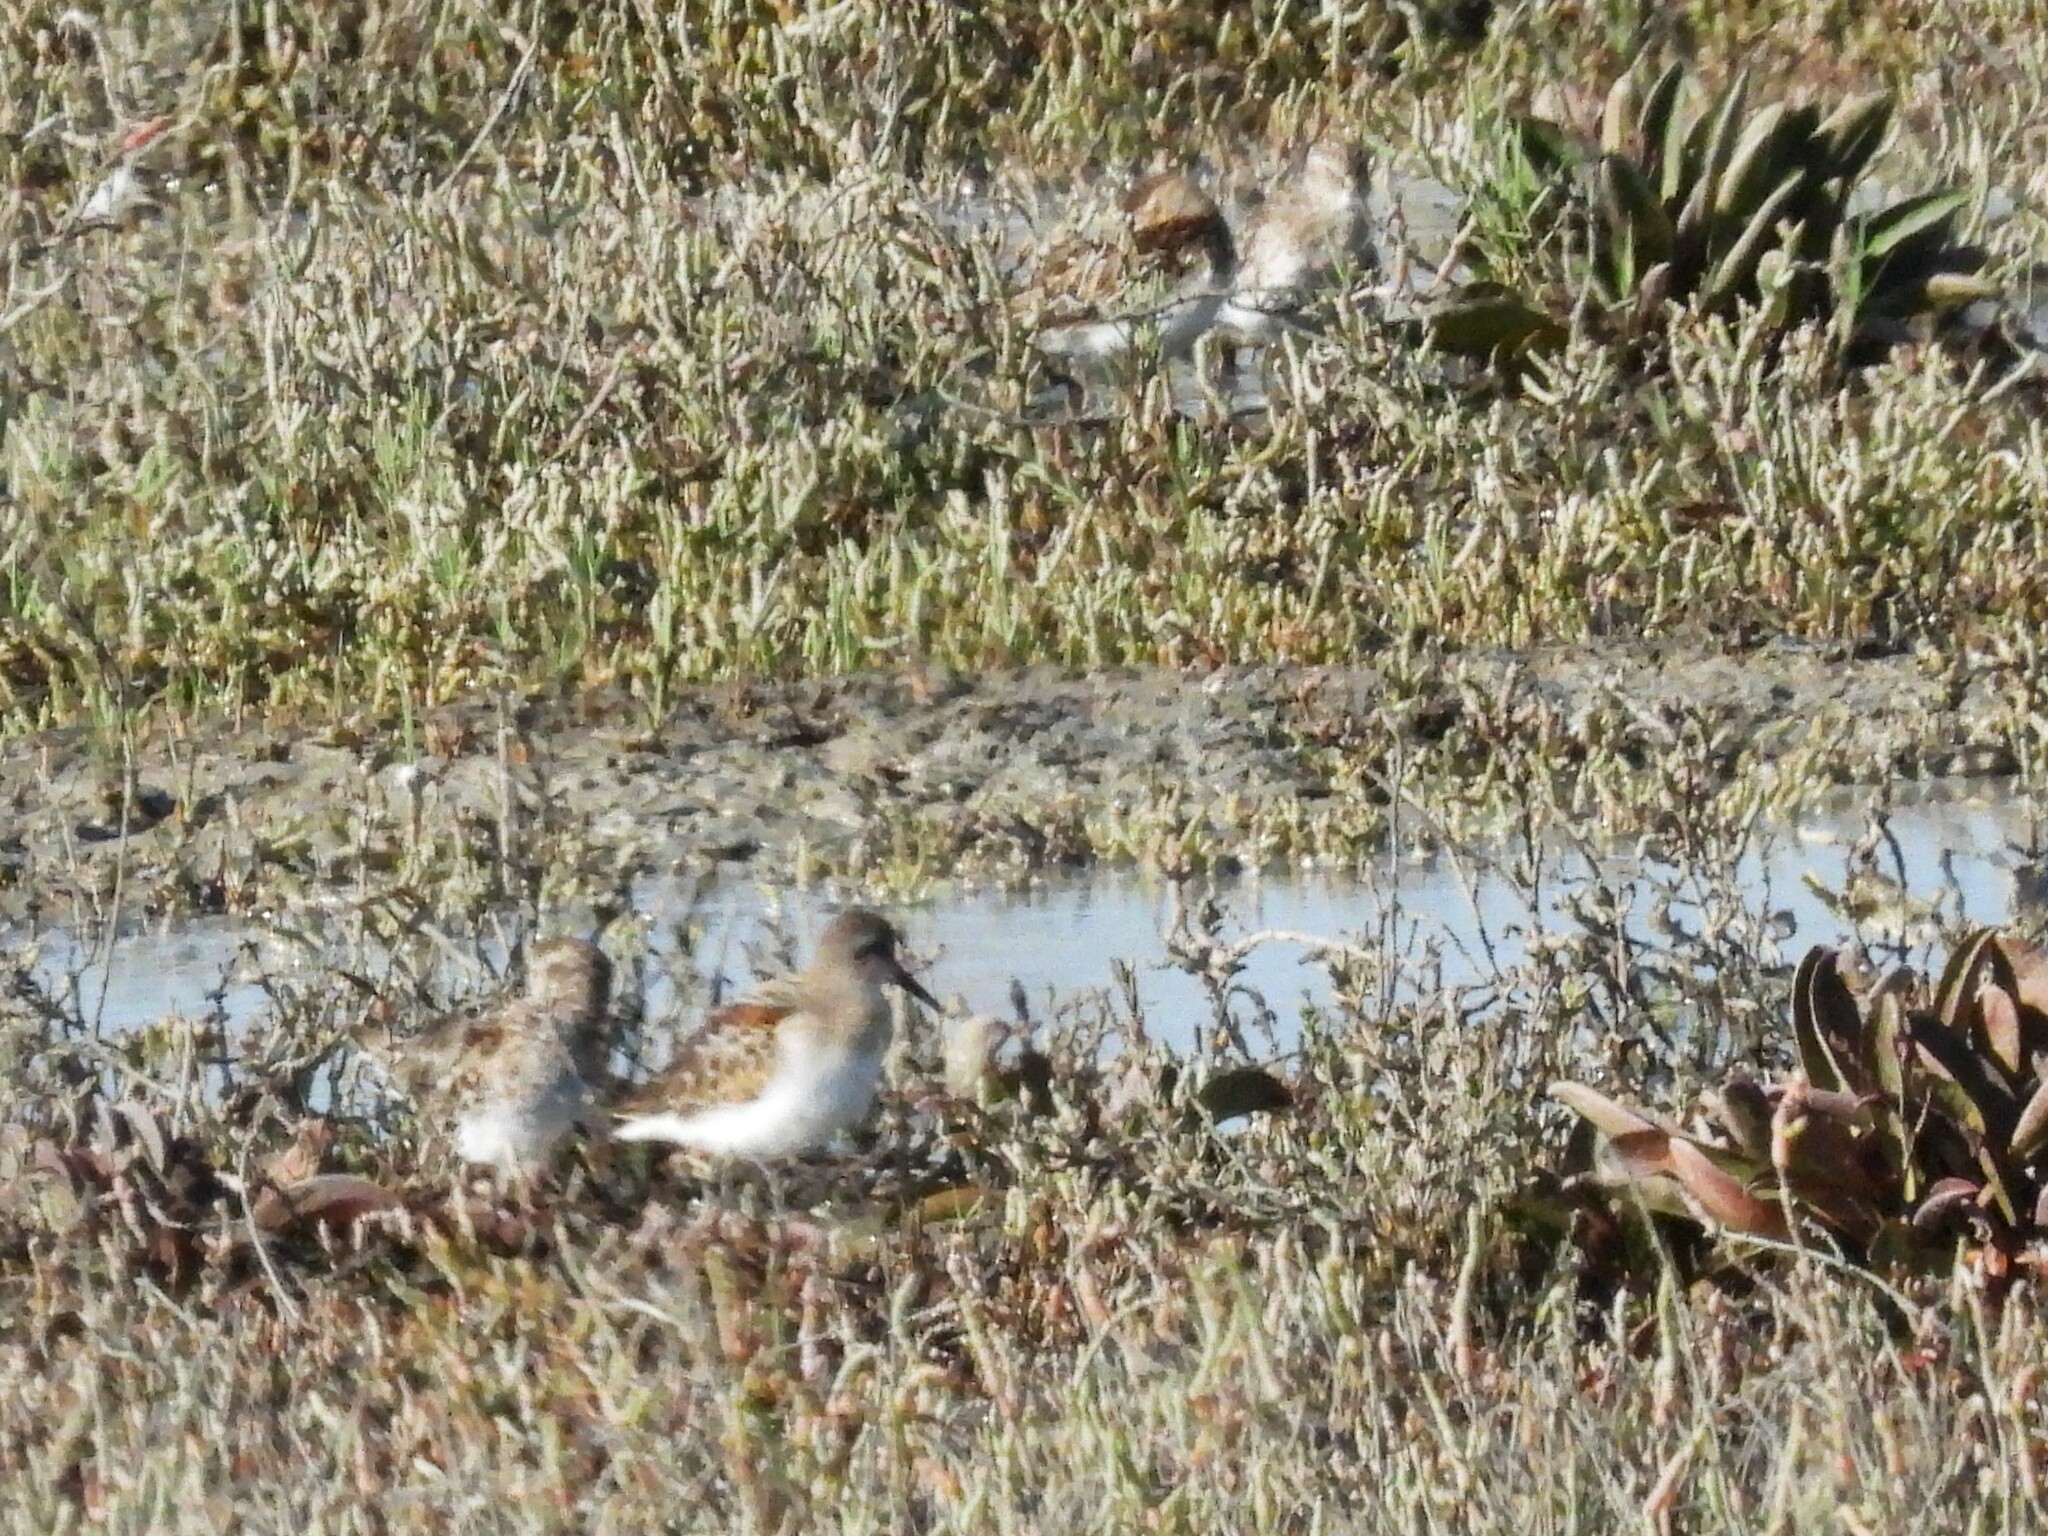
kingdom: Animalia
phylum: Chordata
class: Aves
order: Charadriiformes
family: Scolopacidae
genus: Calidris
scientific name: Calidris mauri
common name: Western sandpiper
